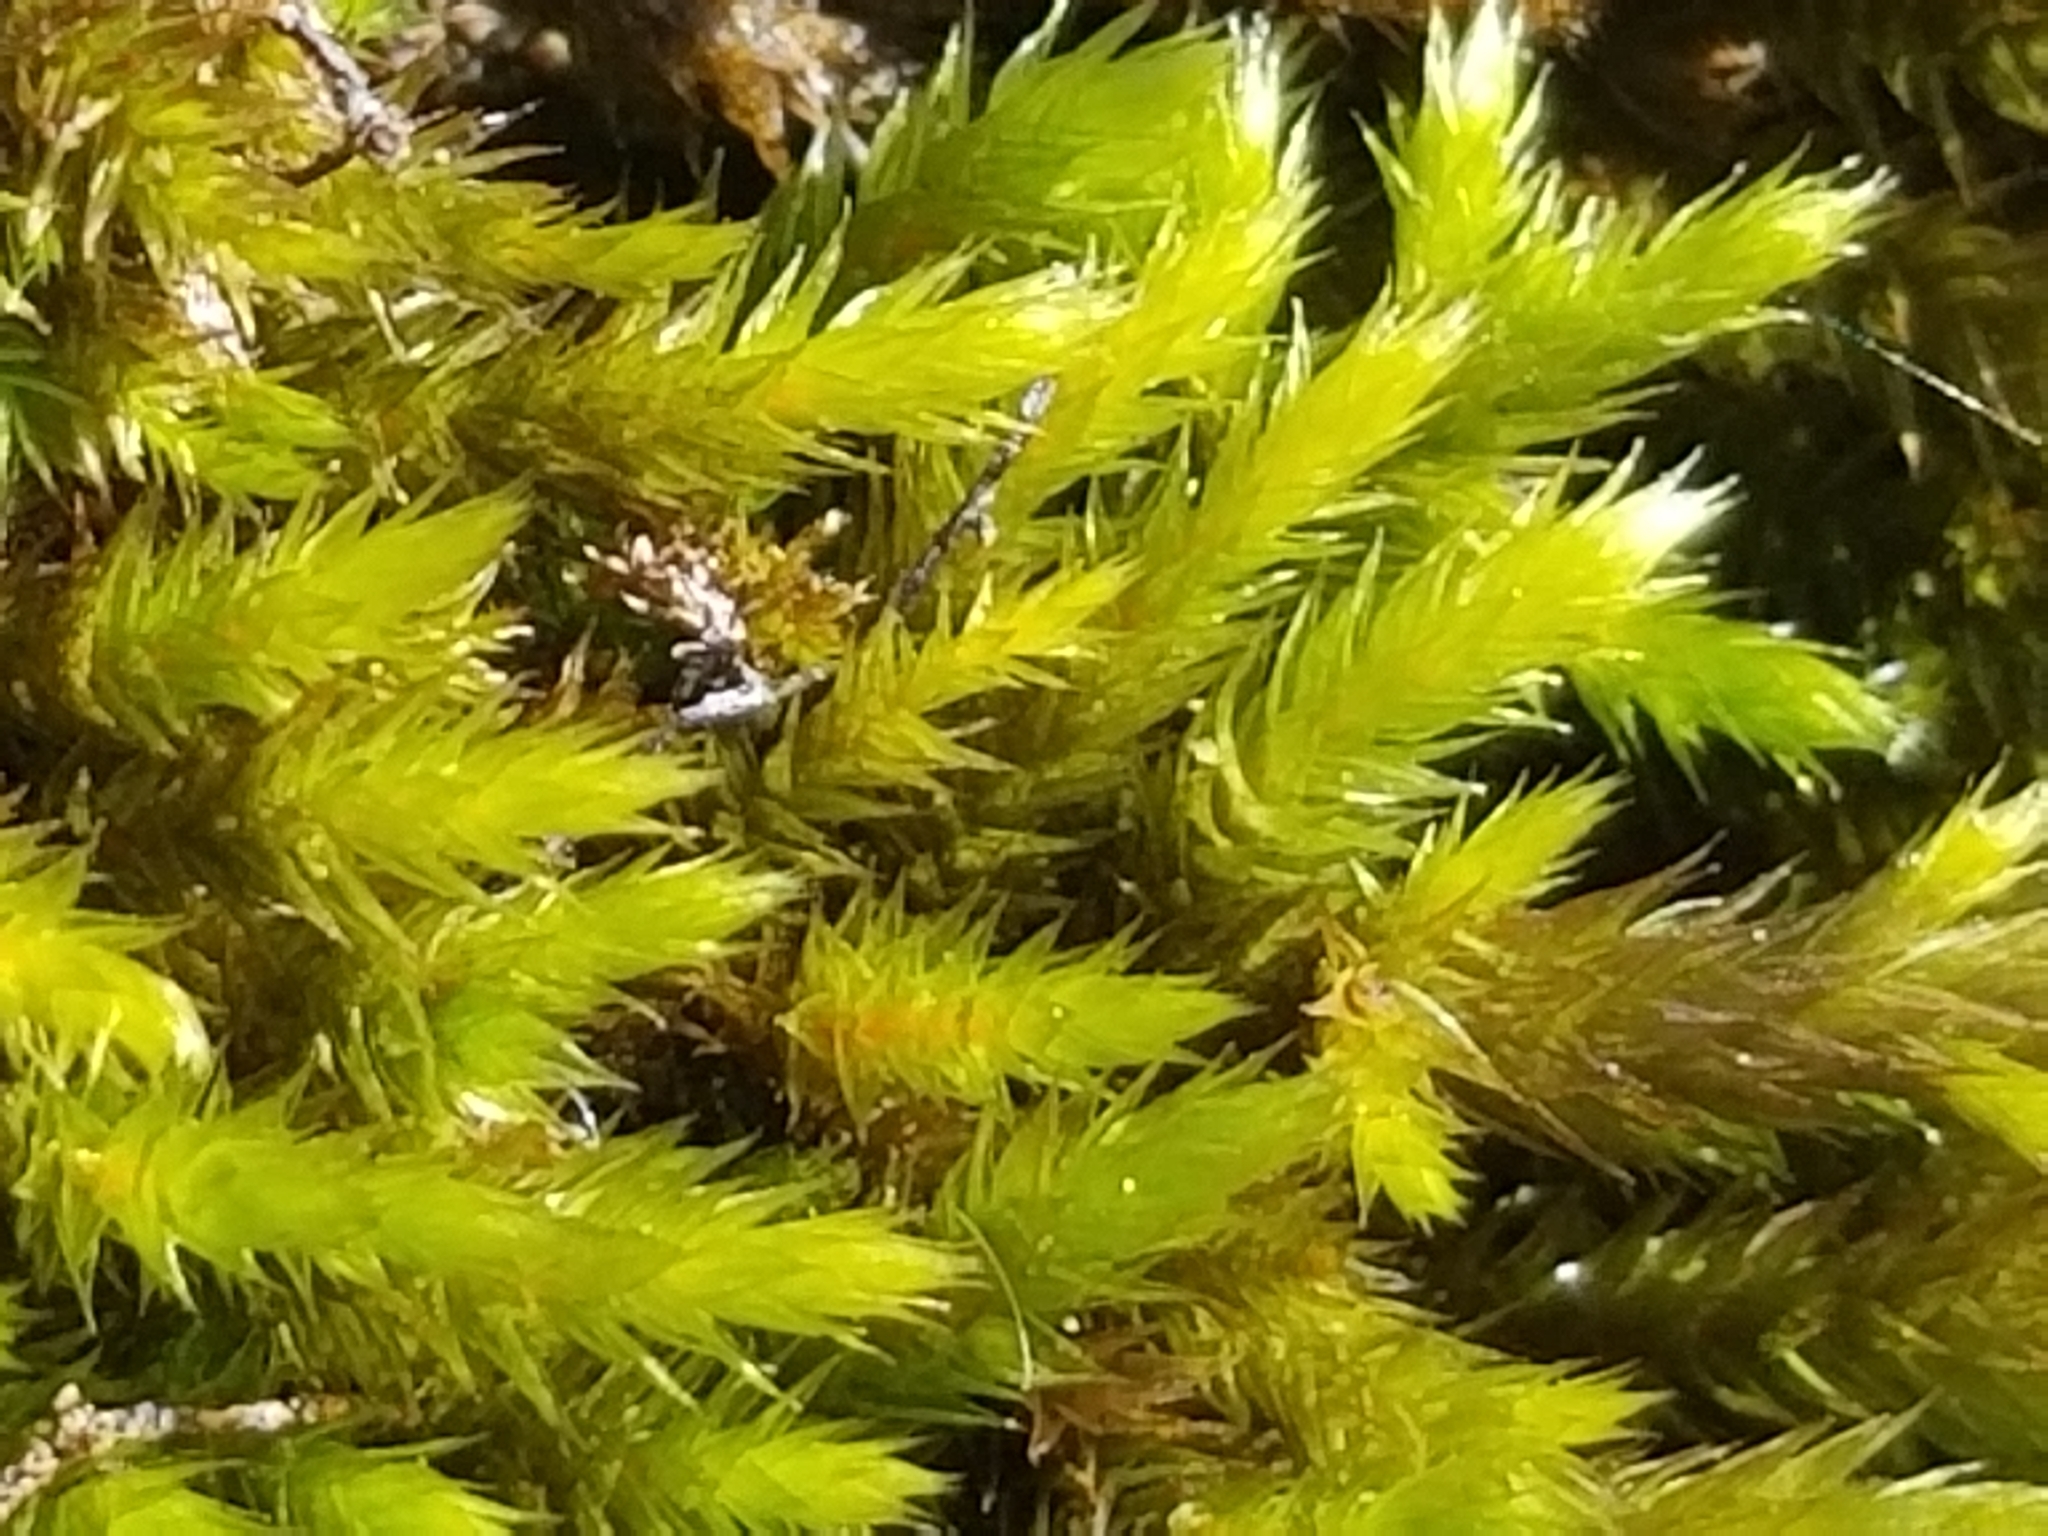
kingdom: Plantae
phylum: Bryophyta
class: Bryopsida
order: Hypnales
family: Leucodontaceae
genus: Leucodon
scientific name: Leucodon sciuroides
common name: Squirrel-tail moss
